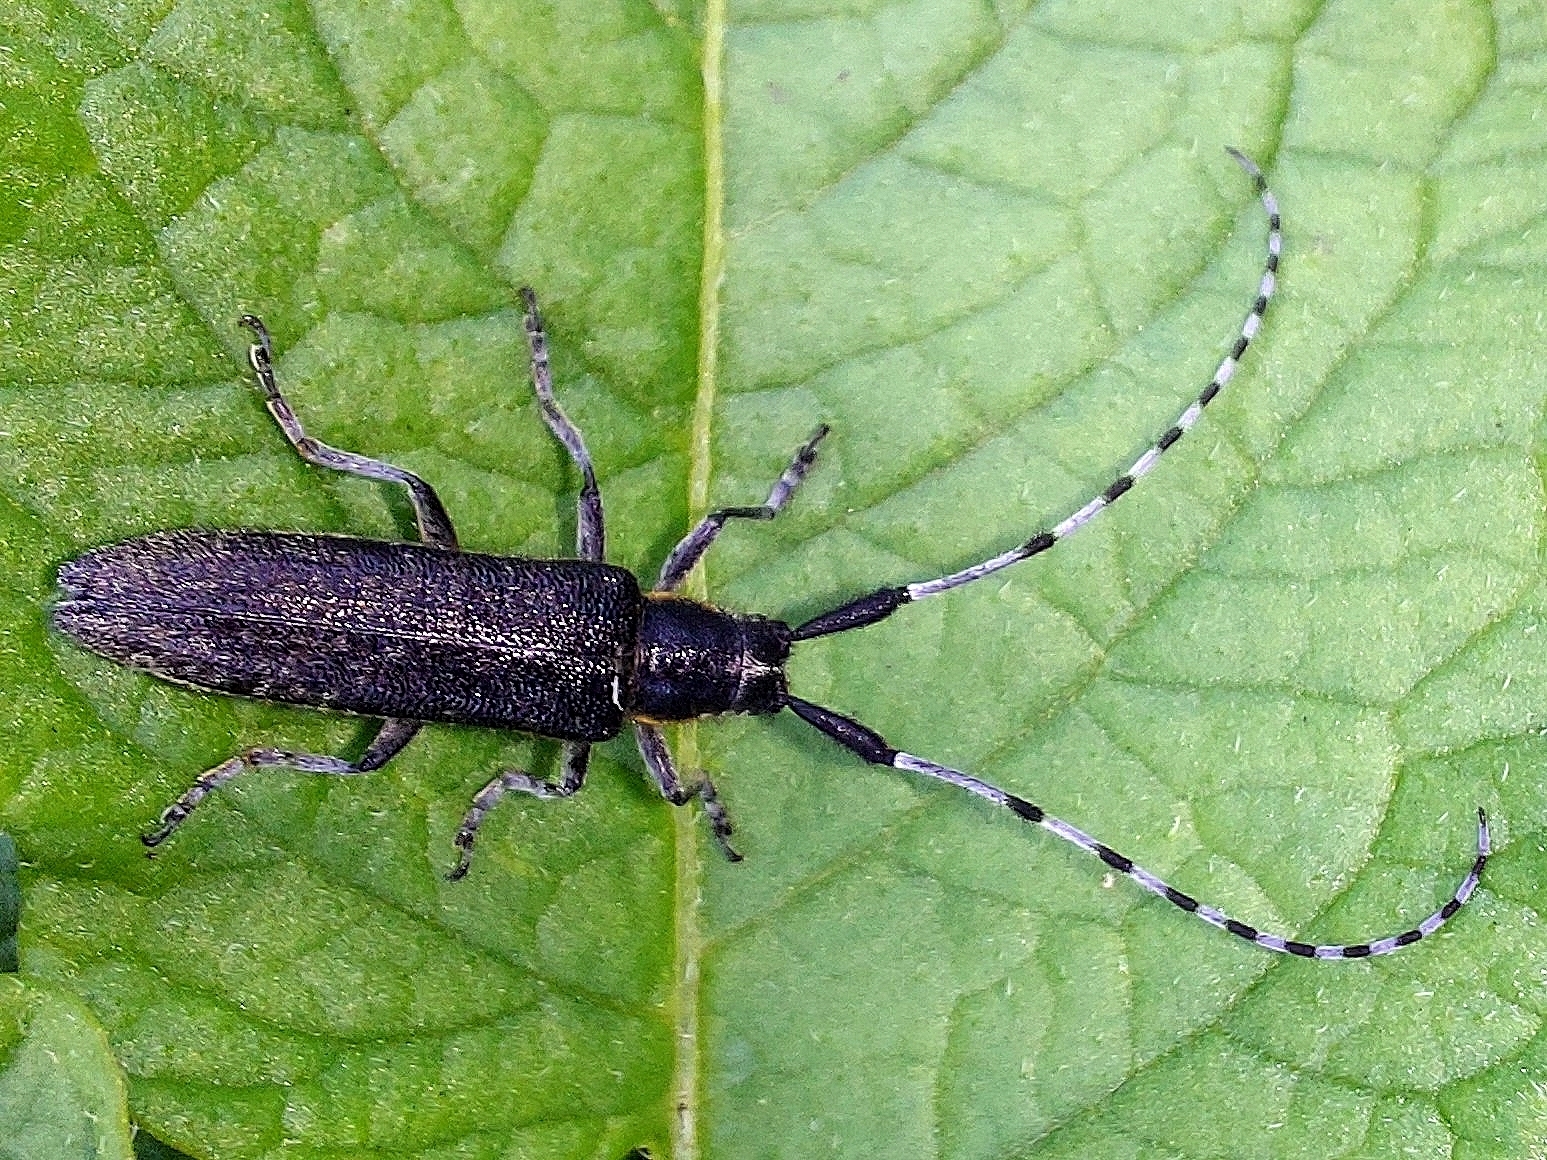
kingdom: Animalia
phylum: Arthropoda
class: Insecta
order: Coleoptera
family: Cerambycidae
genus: Agapanthia
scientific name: Agapanthia villosoviridescens
